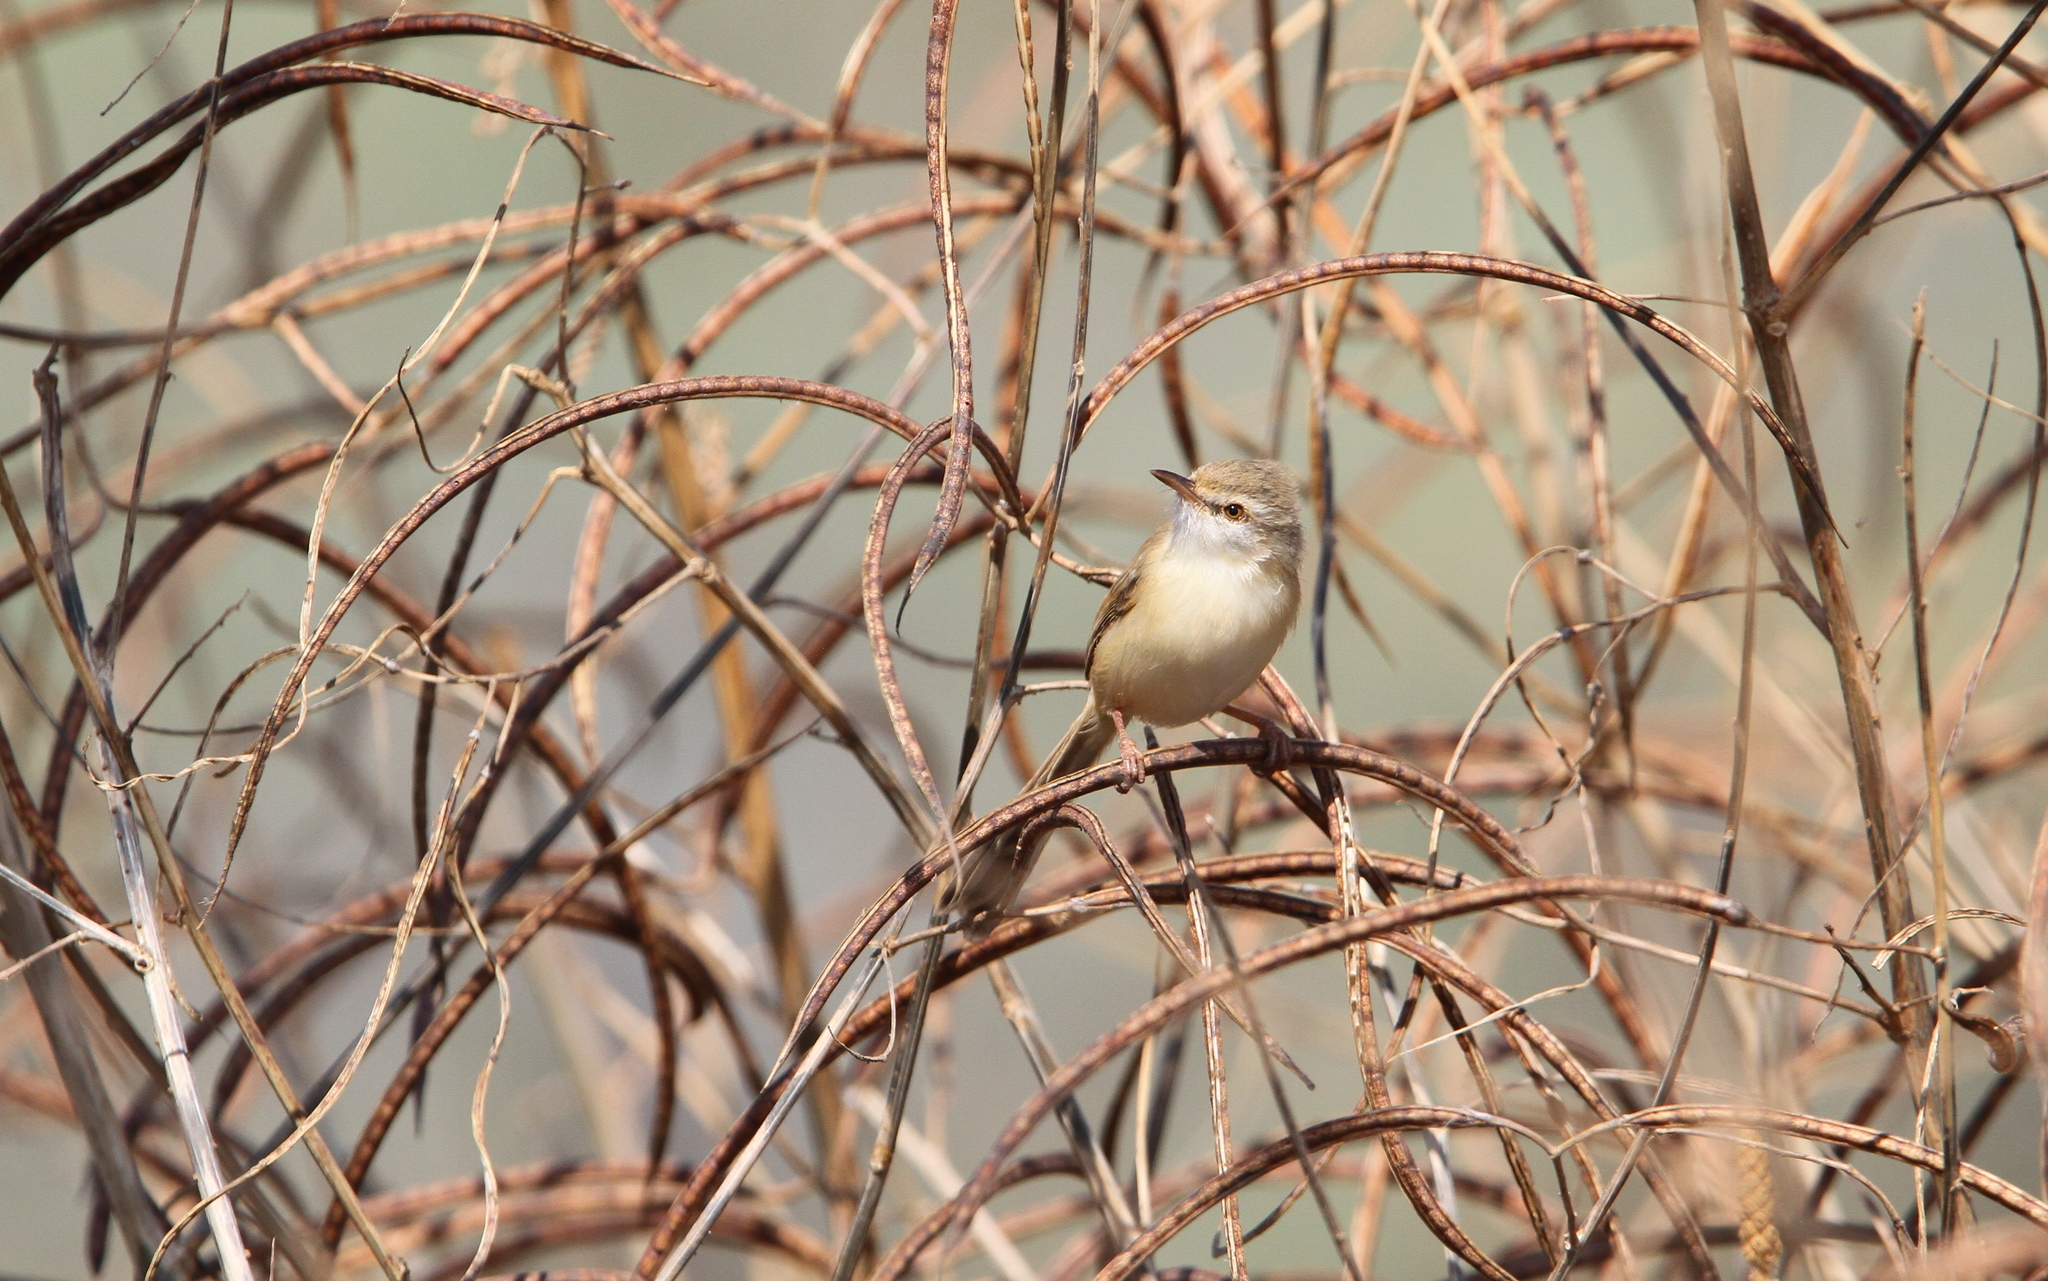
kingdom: Animalia
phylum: Chordata
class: Aves
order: Passeriformes
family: Cisticolidae
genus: Prinia
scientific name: Prinia fluviatilis
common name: River prinia
